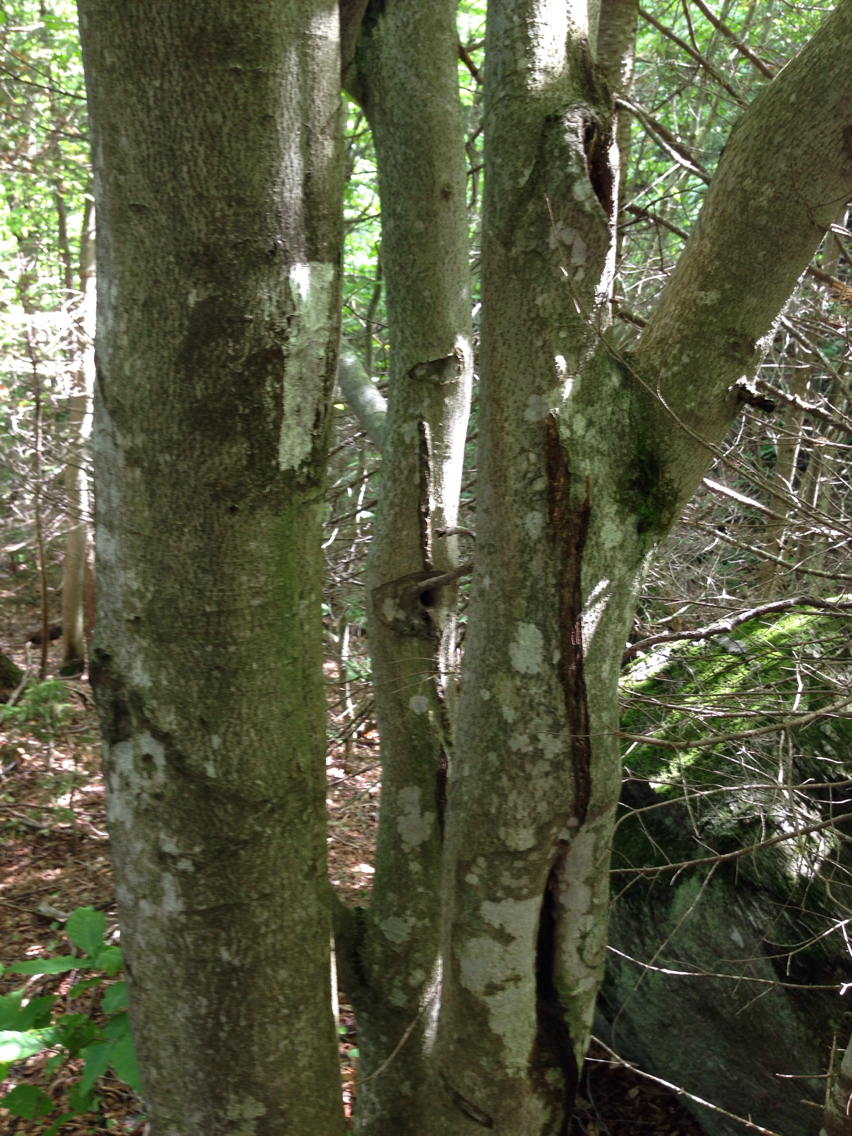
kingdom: Plantae
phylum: Tracheophyta
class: Magnoliopsida
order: Fagales
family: Fagaceae
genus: Fagus
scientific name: Fagus grandifolia
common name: American beech
